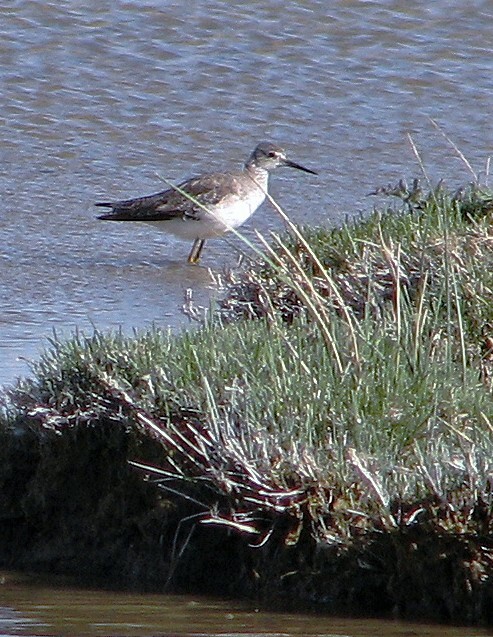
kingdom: Animalia
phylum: Chordata
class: Aves
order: Charadriiformes
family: Scolopacidae
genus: Tringa
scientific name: Tringa flavipes
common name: Lesser yellowlegs
